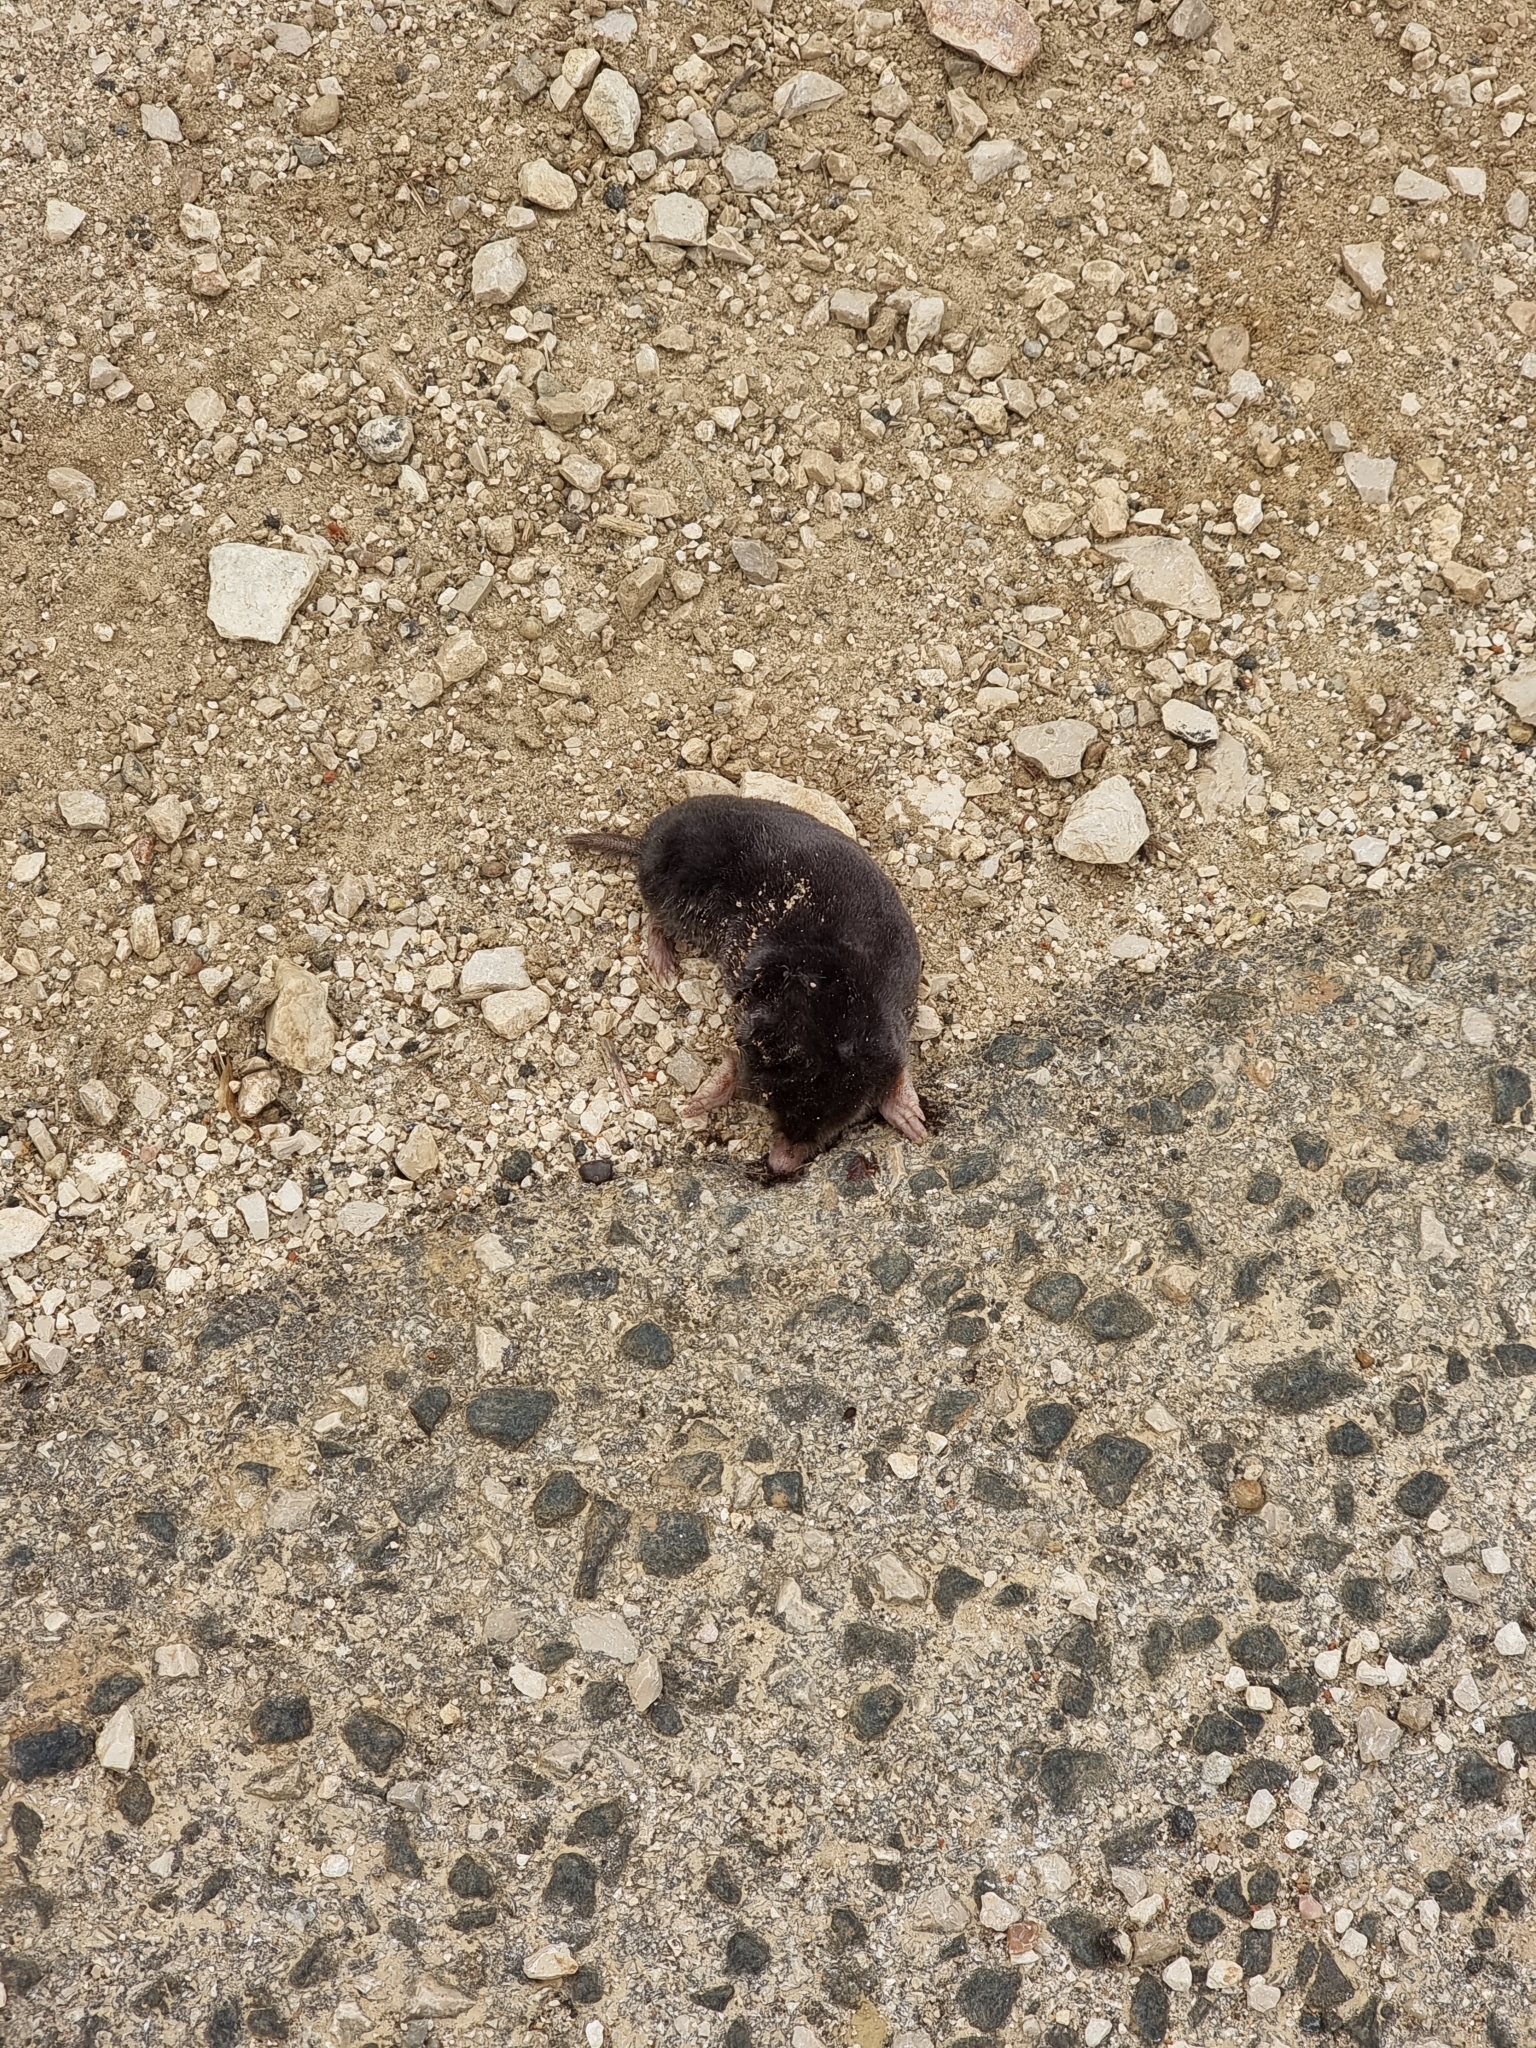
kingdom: Animalia
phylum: Chordata
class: Mammalia
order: Soricomorpha
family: Talpidae
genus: Talpa
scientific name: Talpa occidentalis
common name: Iberian mole
